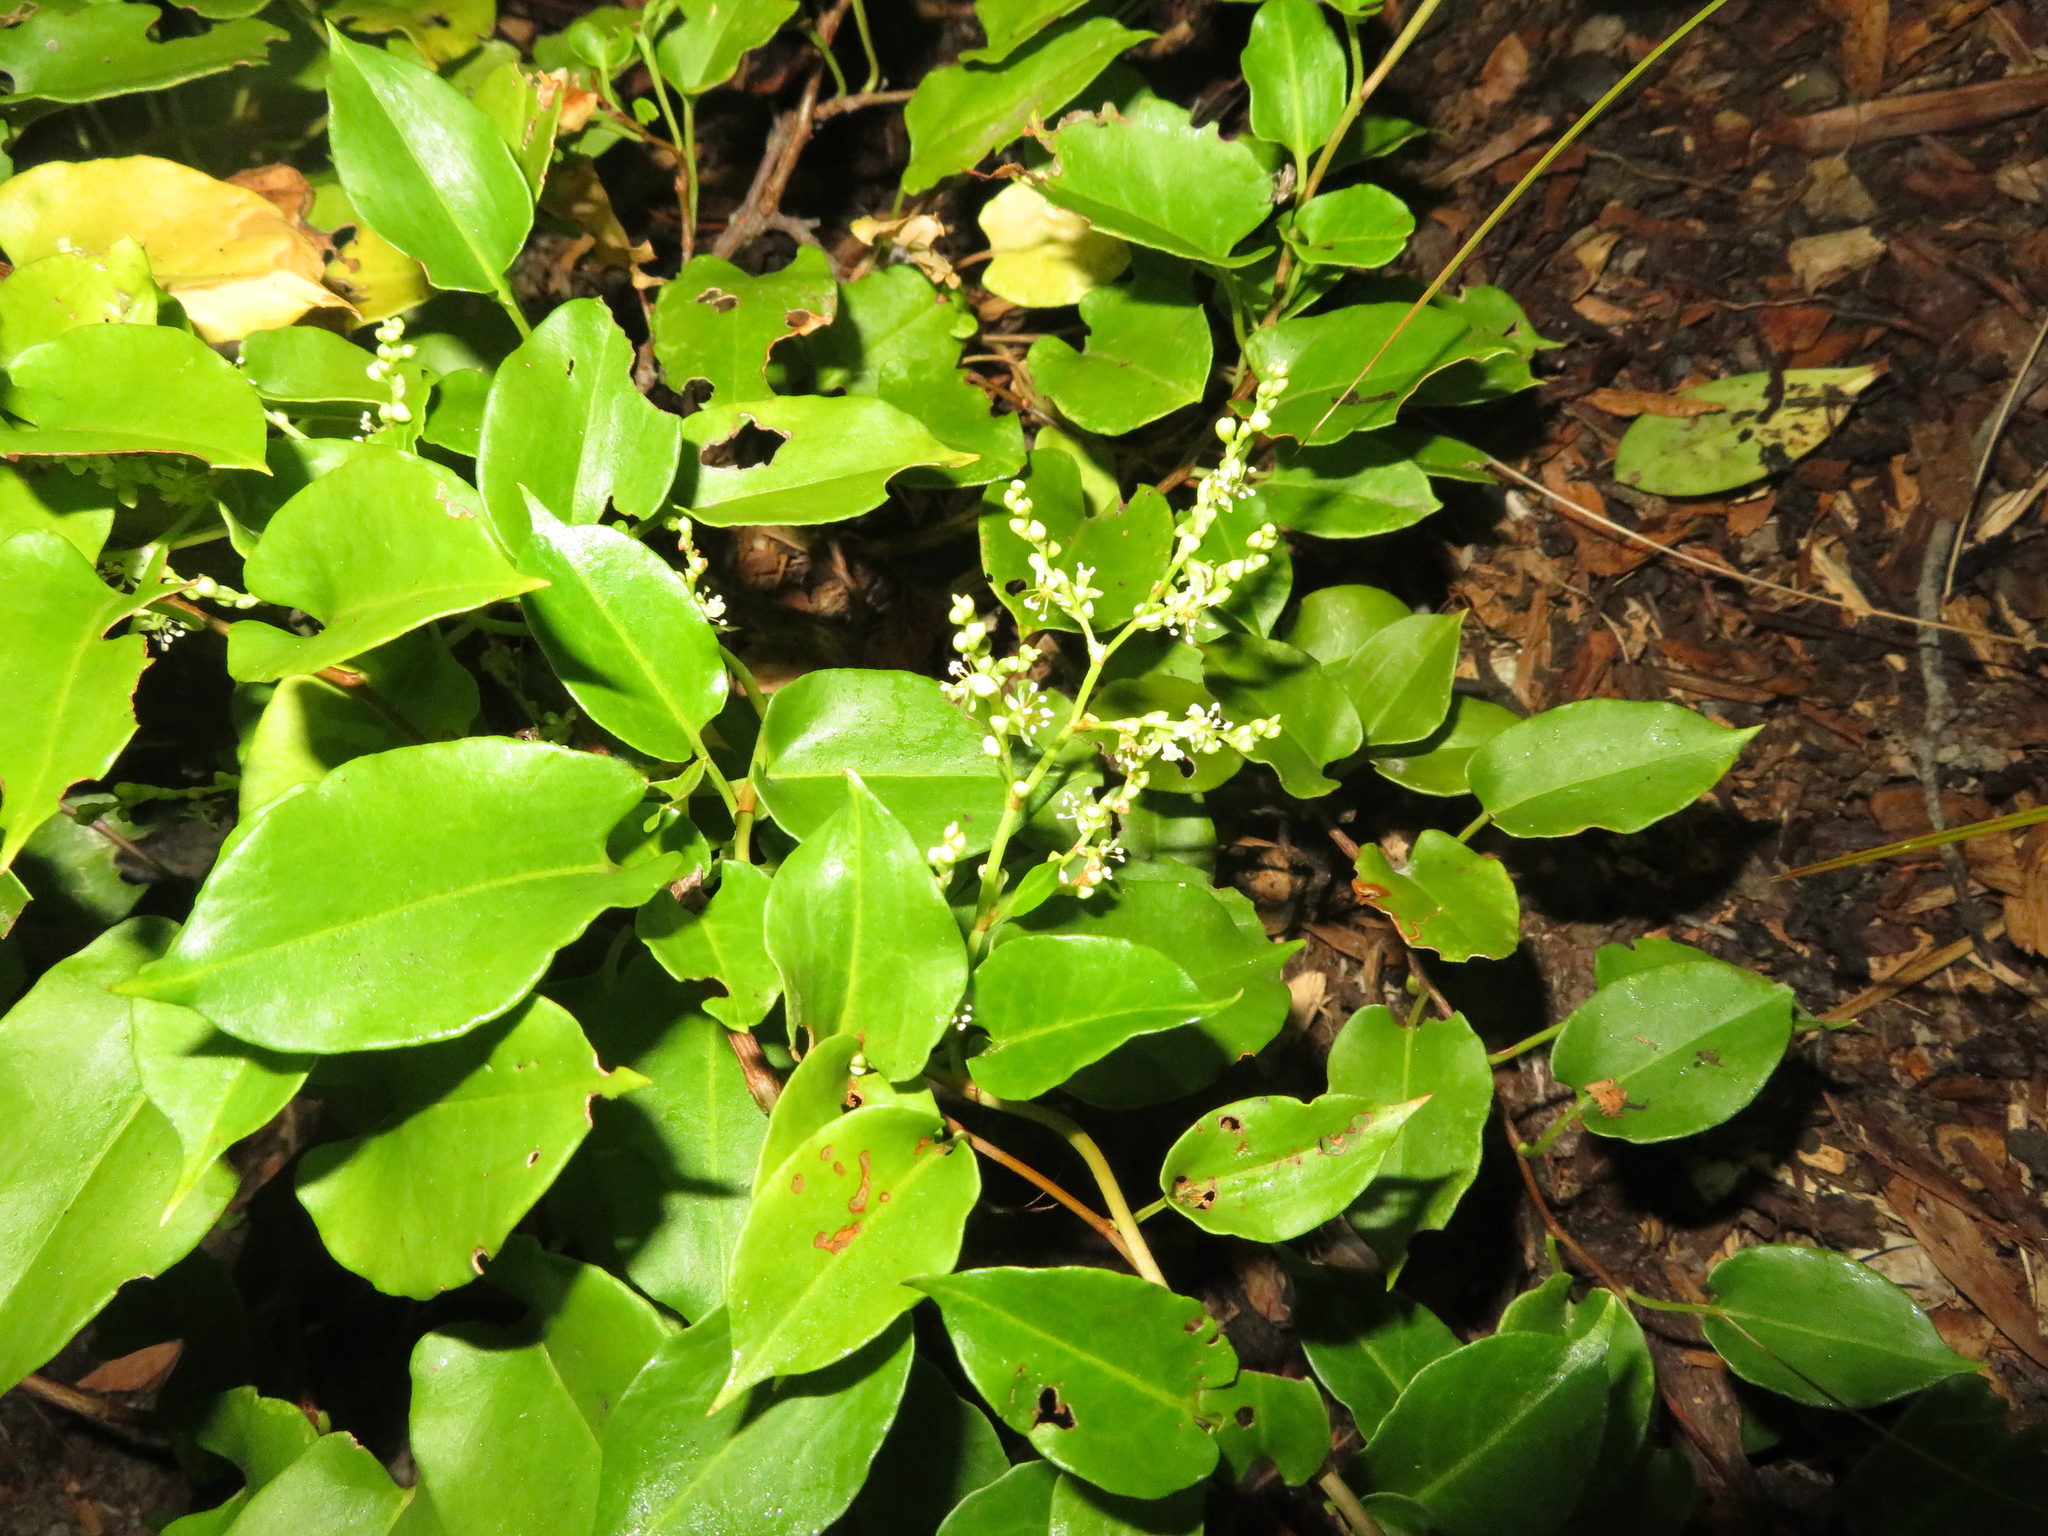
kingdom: Plantae
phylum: Tracheophyta
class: Magnoliopsida
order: Caryophyllales
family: Polygonaceae
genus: Muehlenbeckia
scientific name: Muehlenbeckia australis
